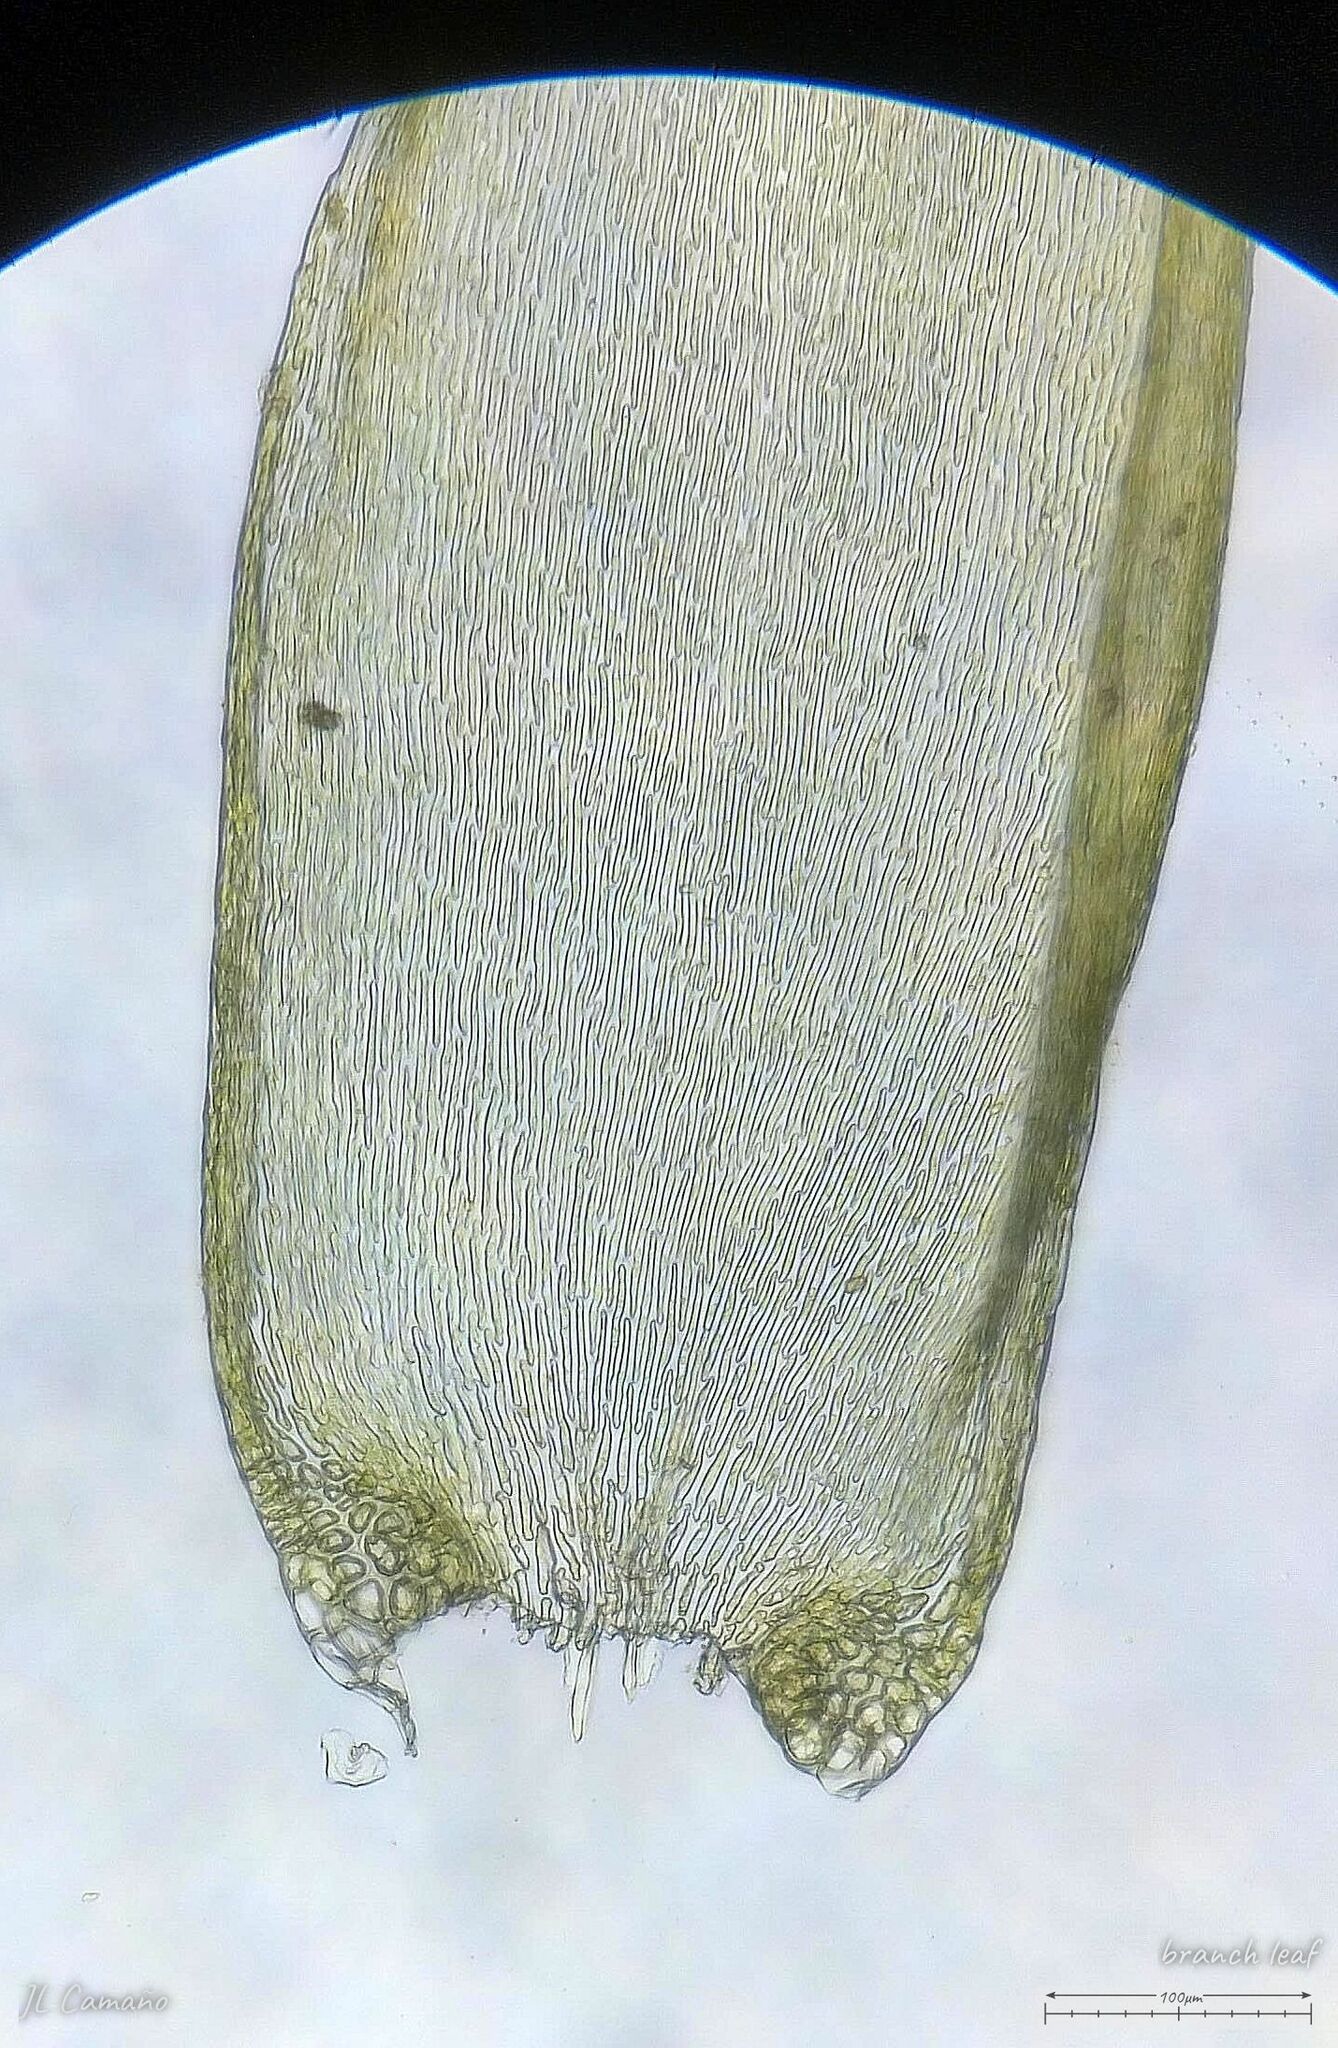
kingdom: Plantae
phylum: Bryophyta
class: Bryopsida
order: Hypnales
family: Callicladiaceae
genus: Callicladium
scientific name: Callicladium haldanianum
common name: Beautiful branch moss
